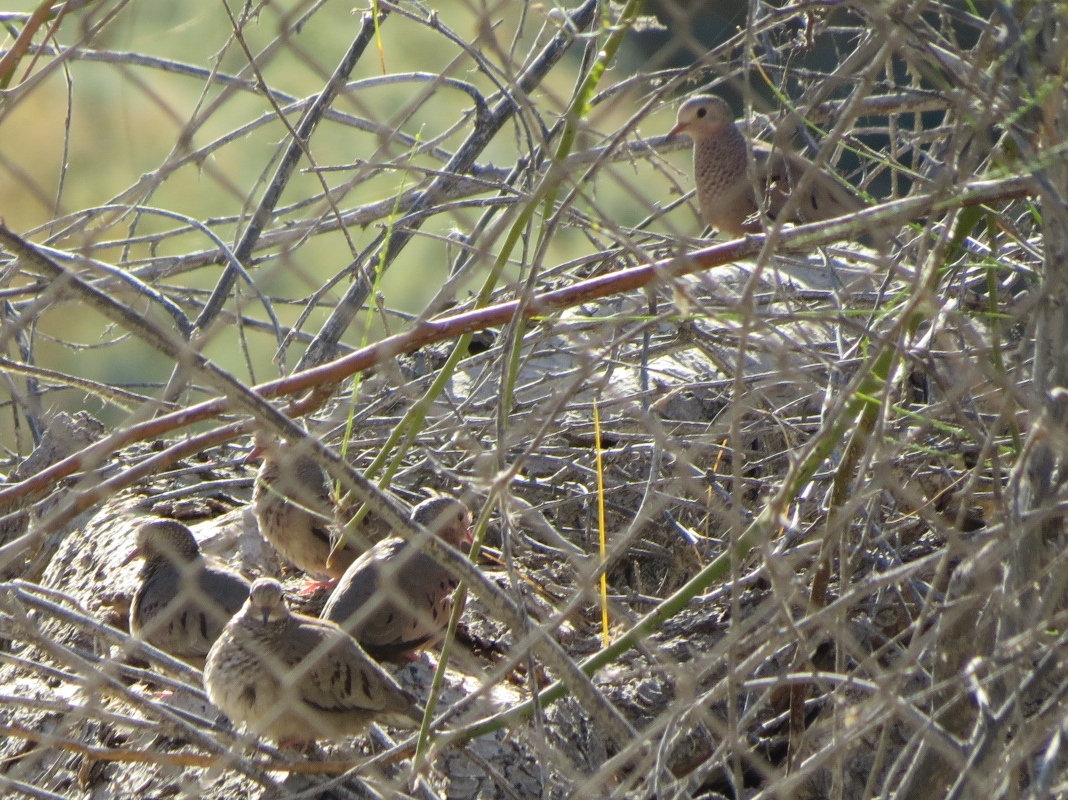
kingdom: Animalia
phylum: Chordata
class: Aves
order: Columbiformes
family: Columbidae
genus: Columbina
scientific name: Columbina passerina
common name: Common ground-dove
